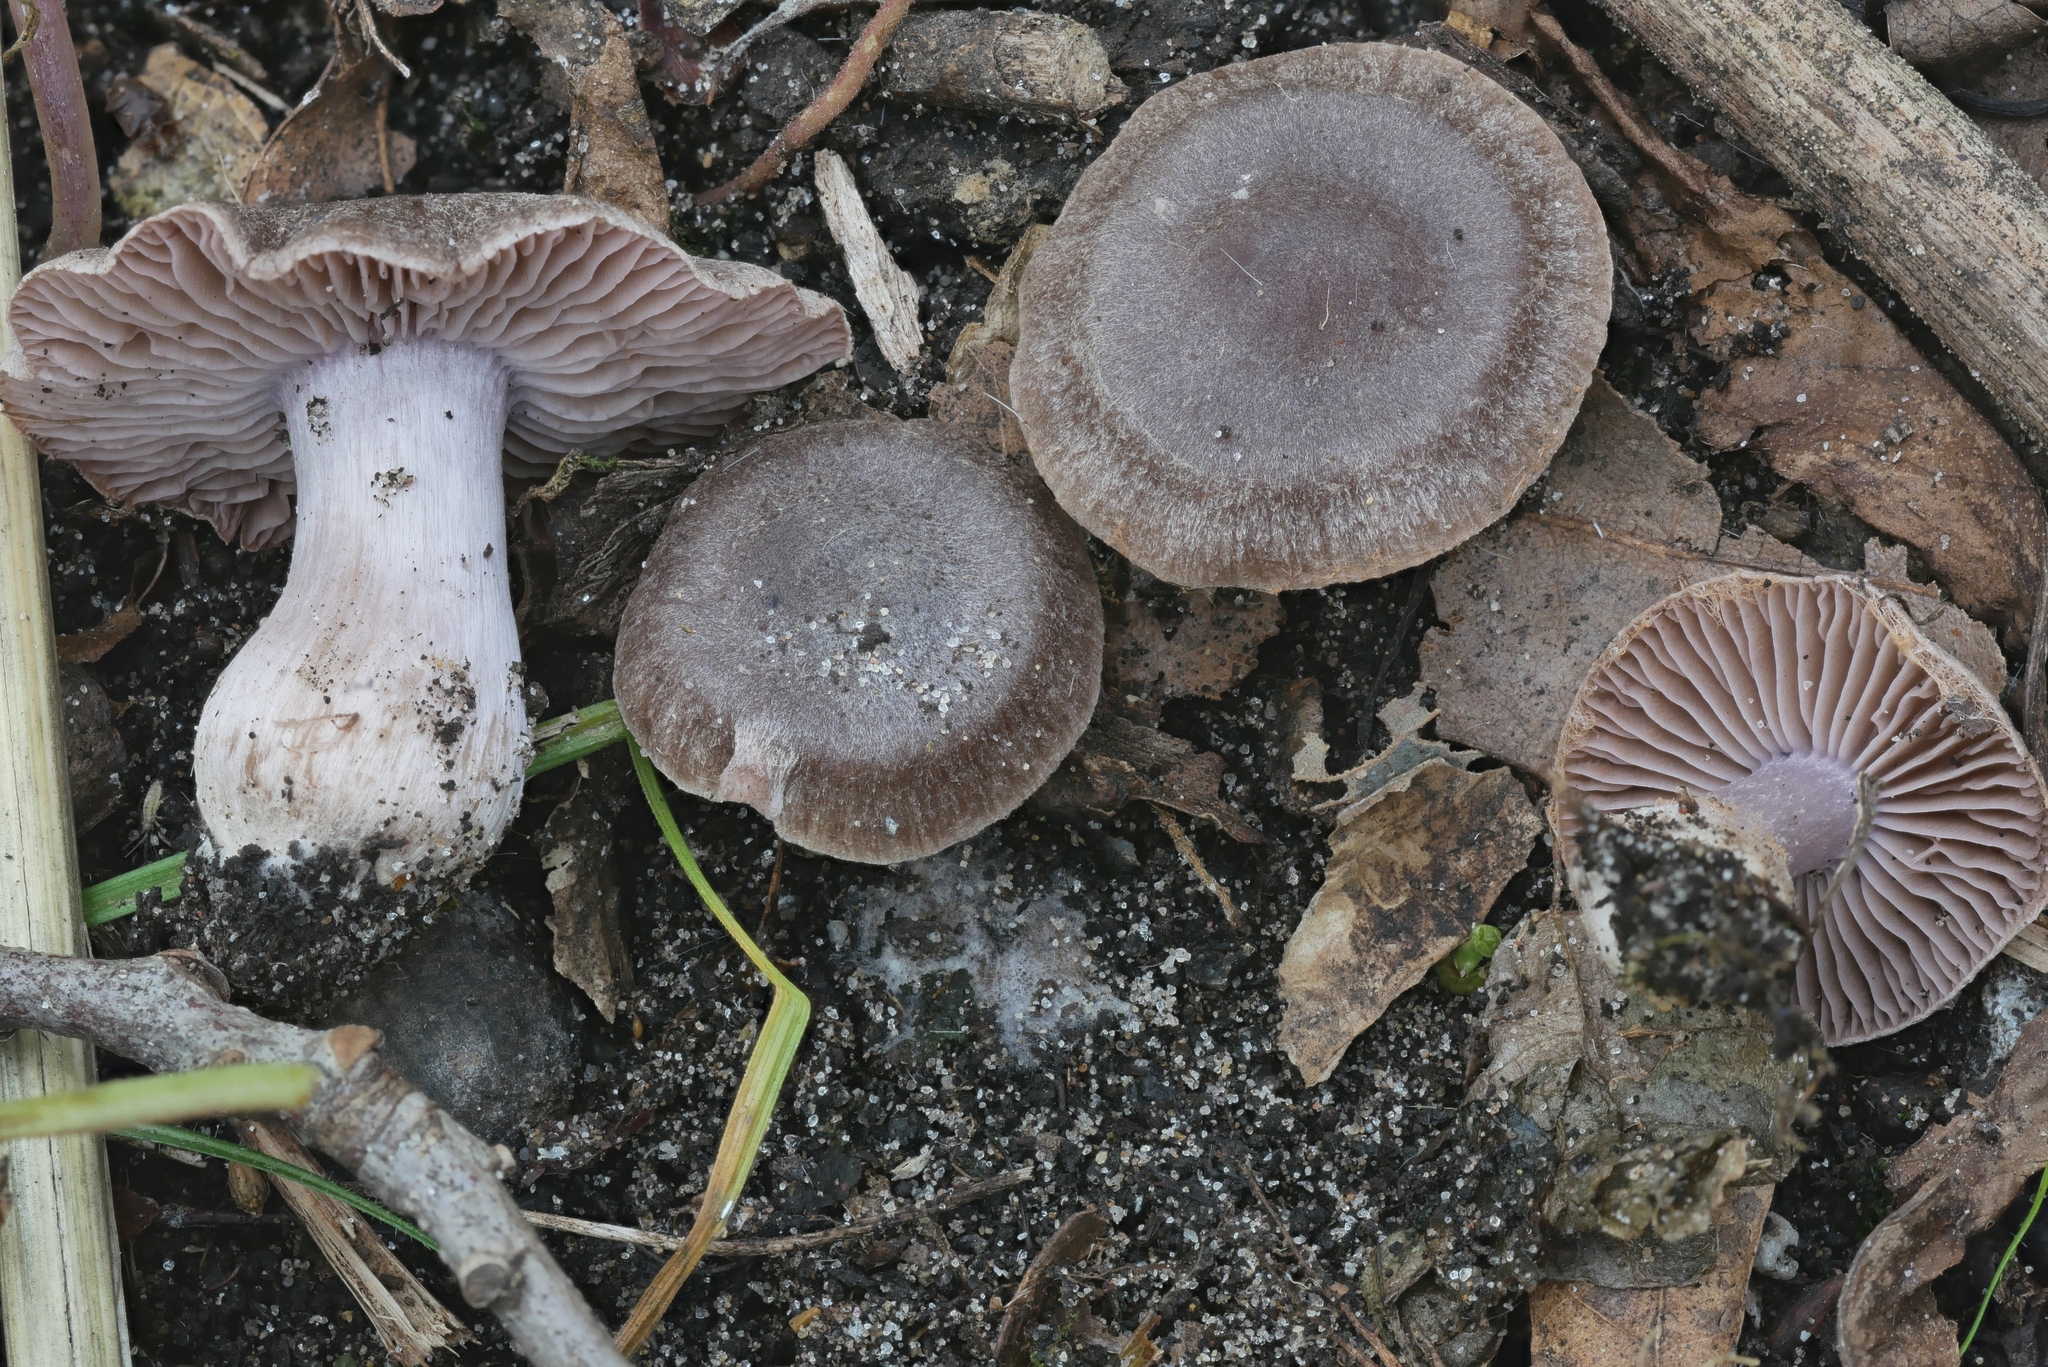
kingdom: Fungi
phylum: Basidiomycota
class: Agaricomycetes
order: Agaricales
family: Cortinariaceae
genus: Cortinarius
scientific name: Cortinarius ferrugineovelatus
